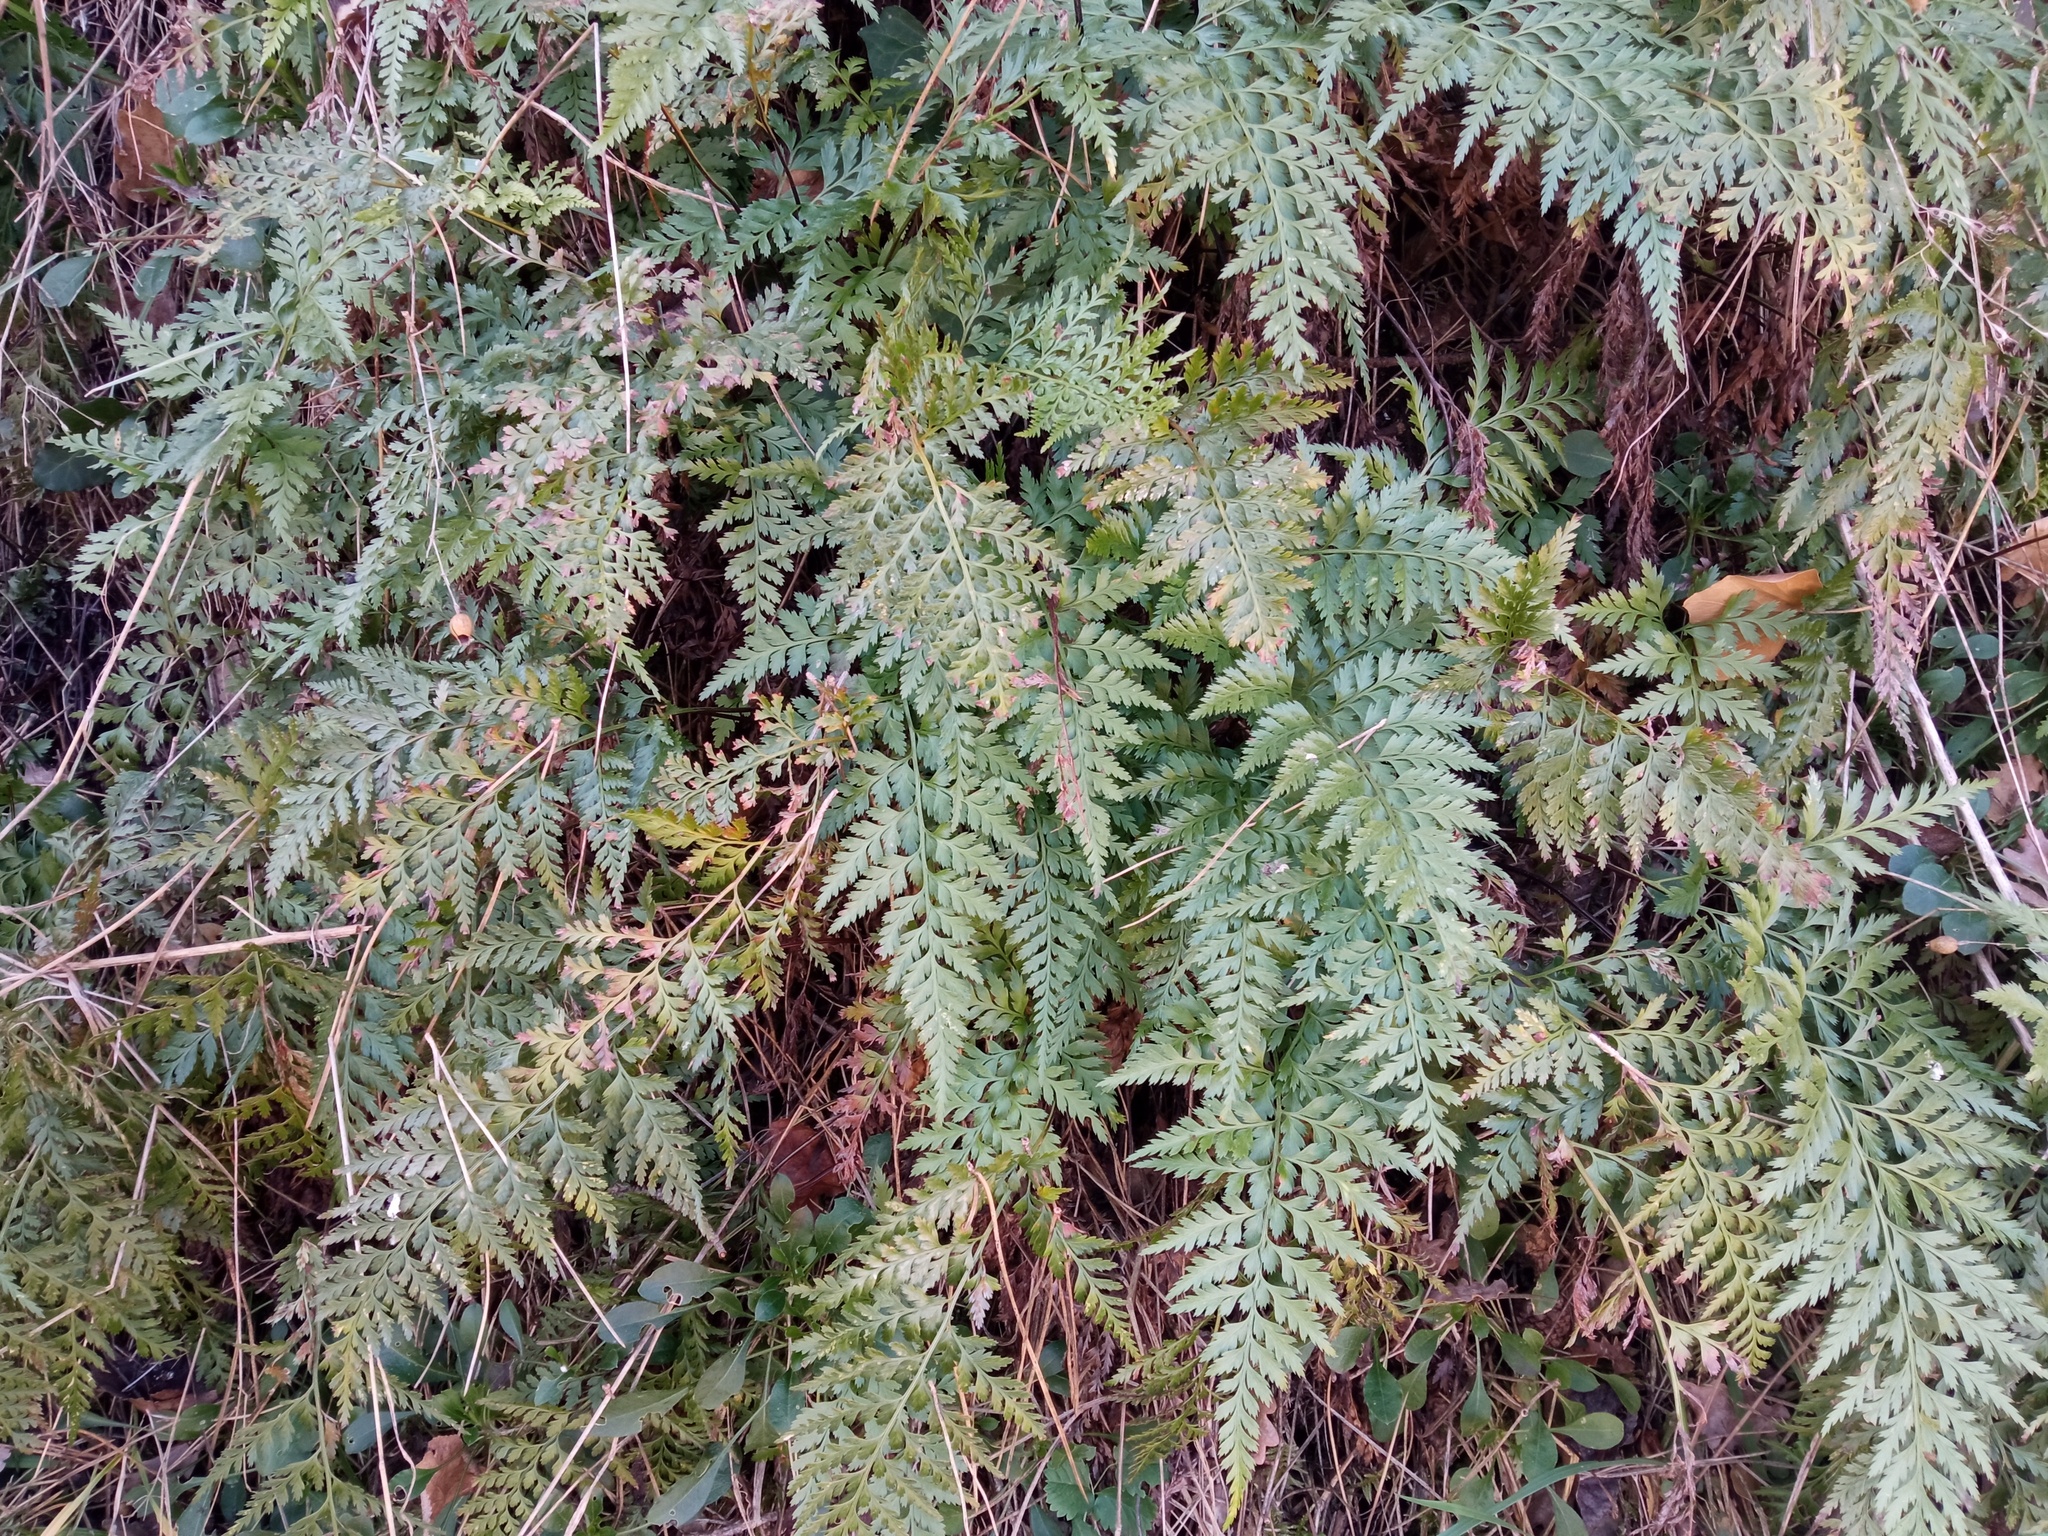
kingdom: Plantae
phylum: Tracheophyta
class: Polypodiopsida
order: Polypodiales
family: Aspleniaceae
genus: Asplenium
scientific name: Asplenium onopteris
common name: Irish spleenwort
